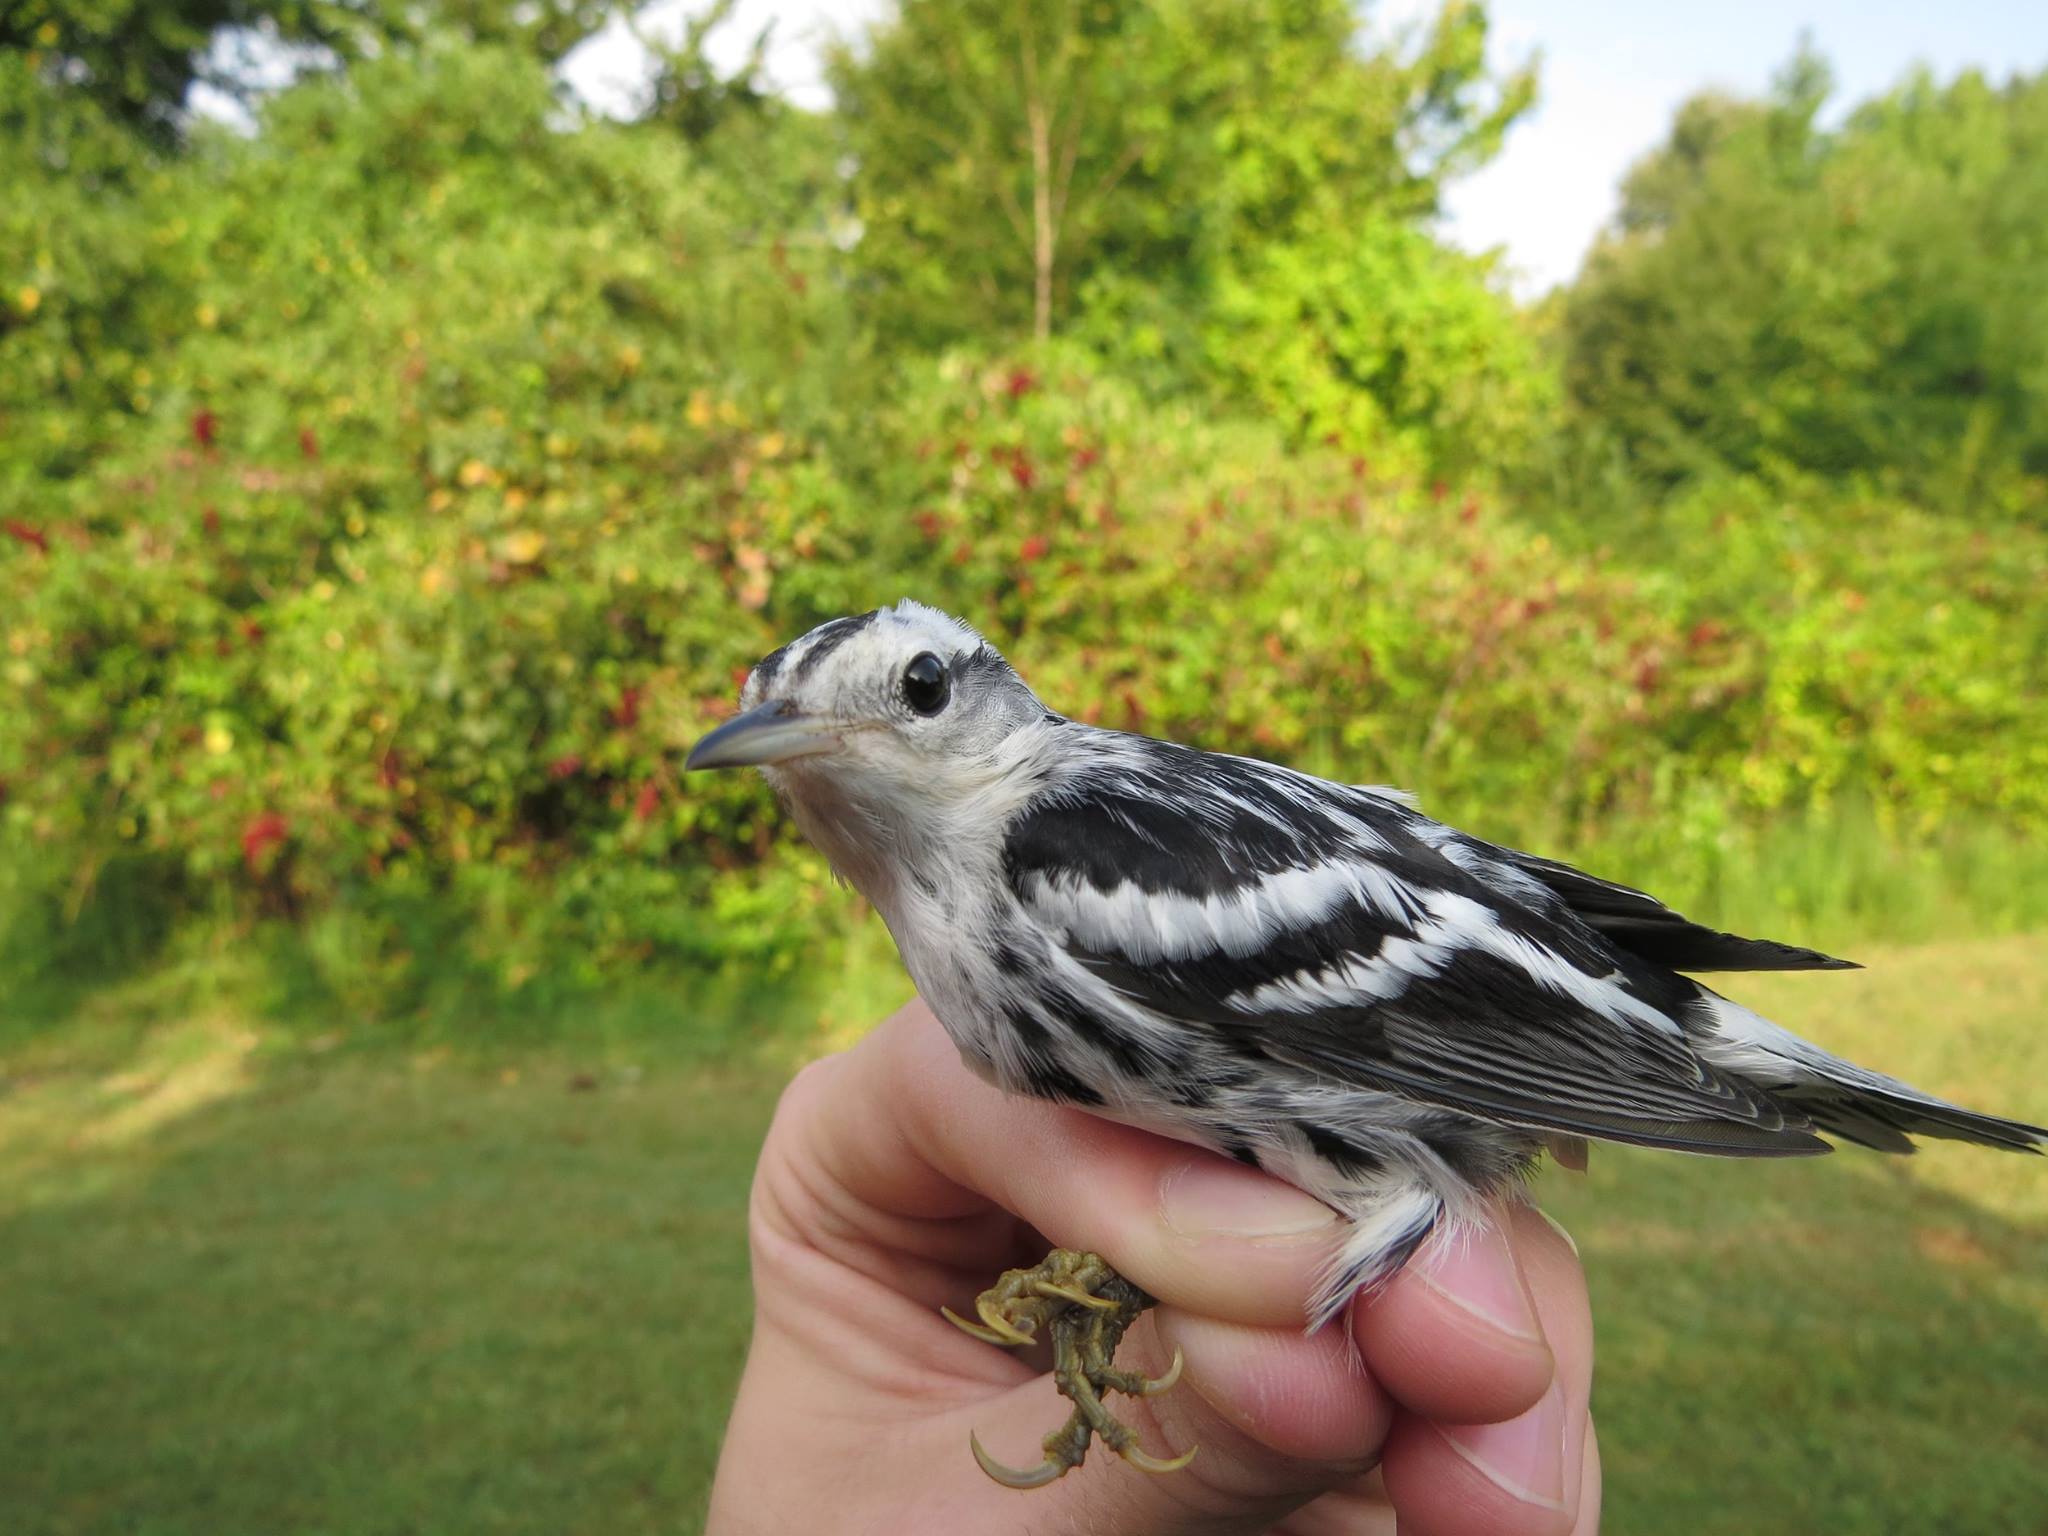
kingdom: Animalia
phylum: Chordata
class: Aves
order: Passeriformes
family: Parulidae
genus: Mniotilta
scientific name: Mniotilta varia
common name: Black-and-white warbler
